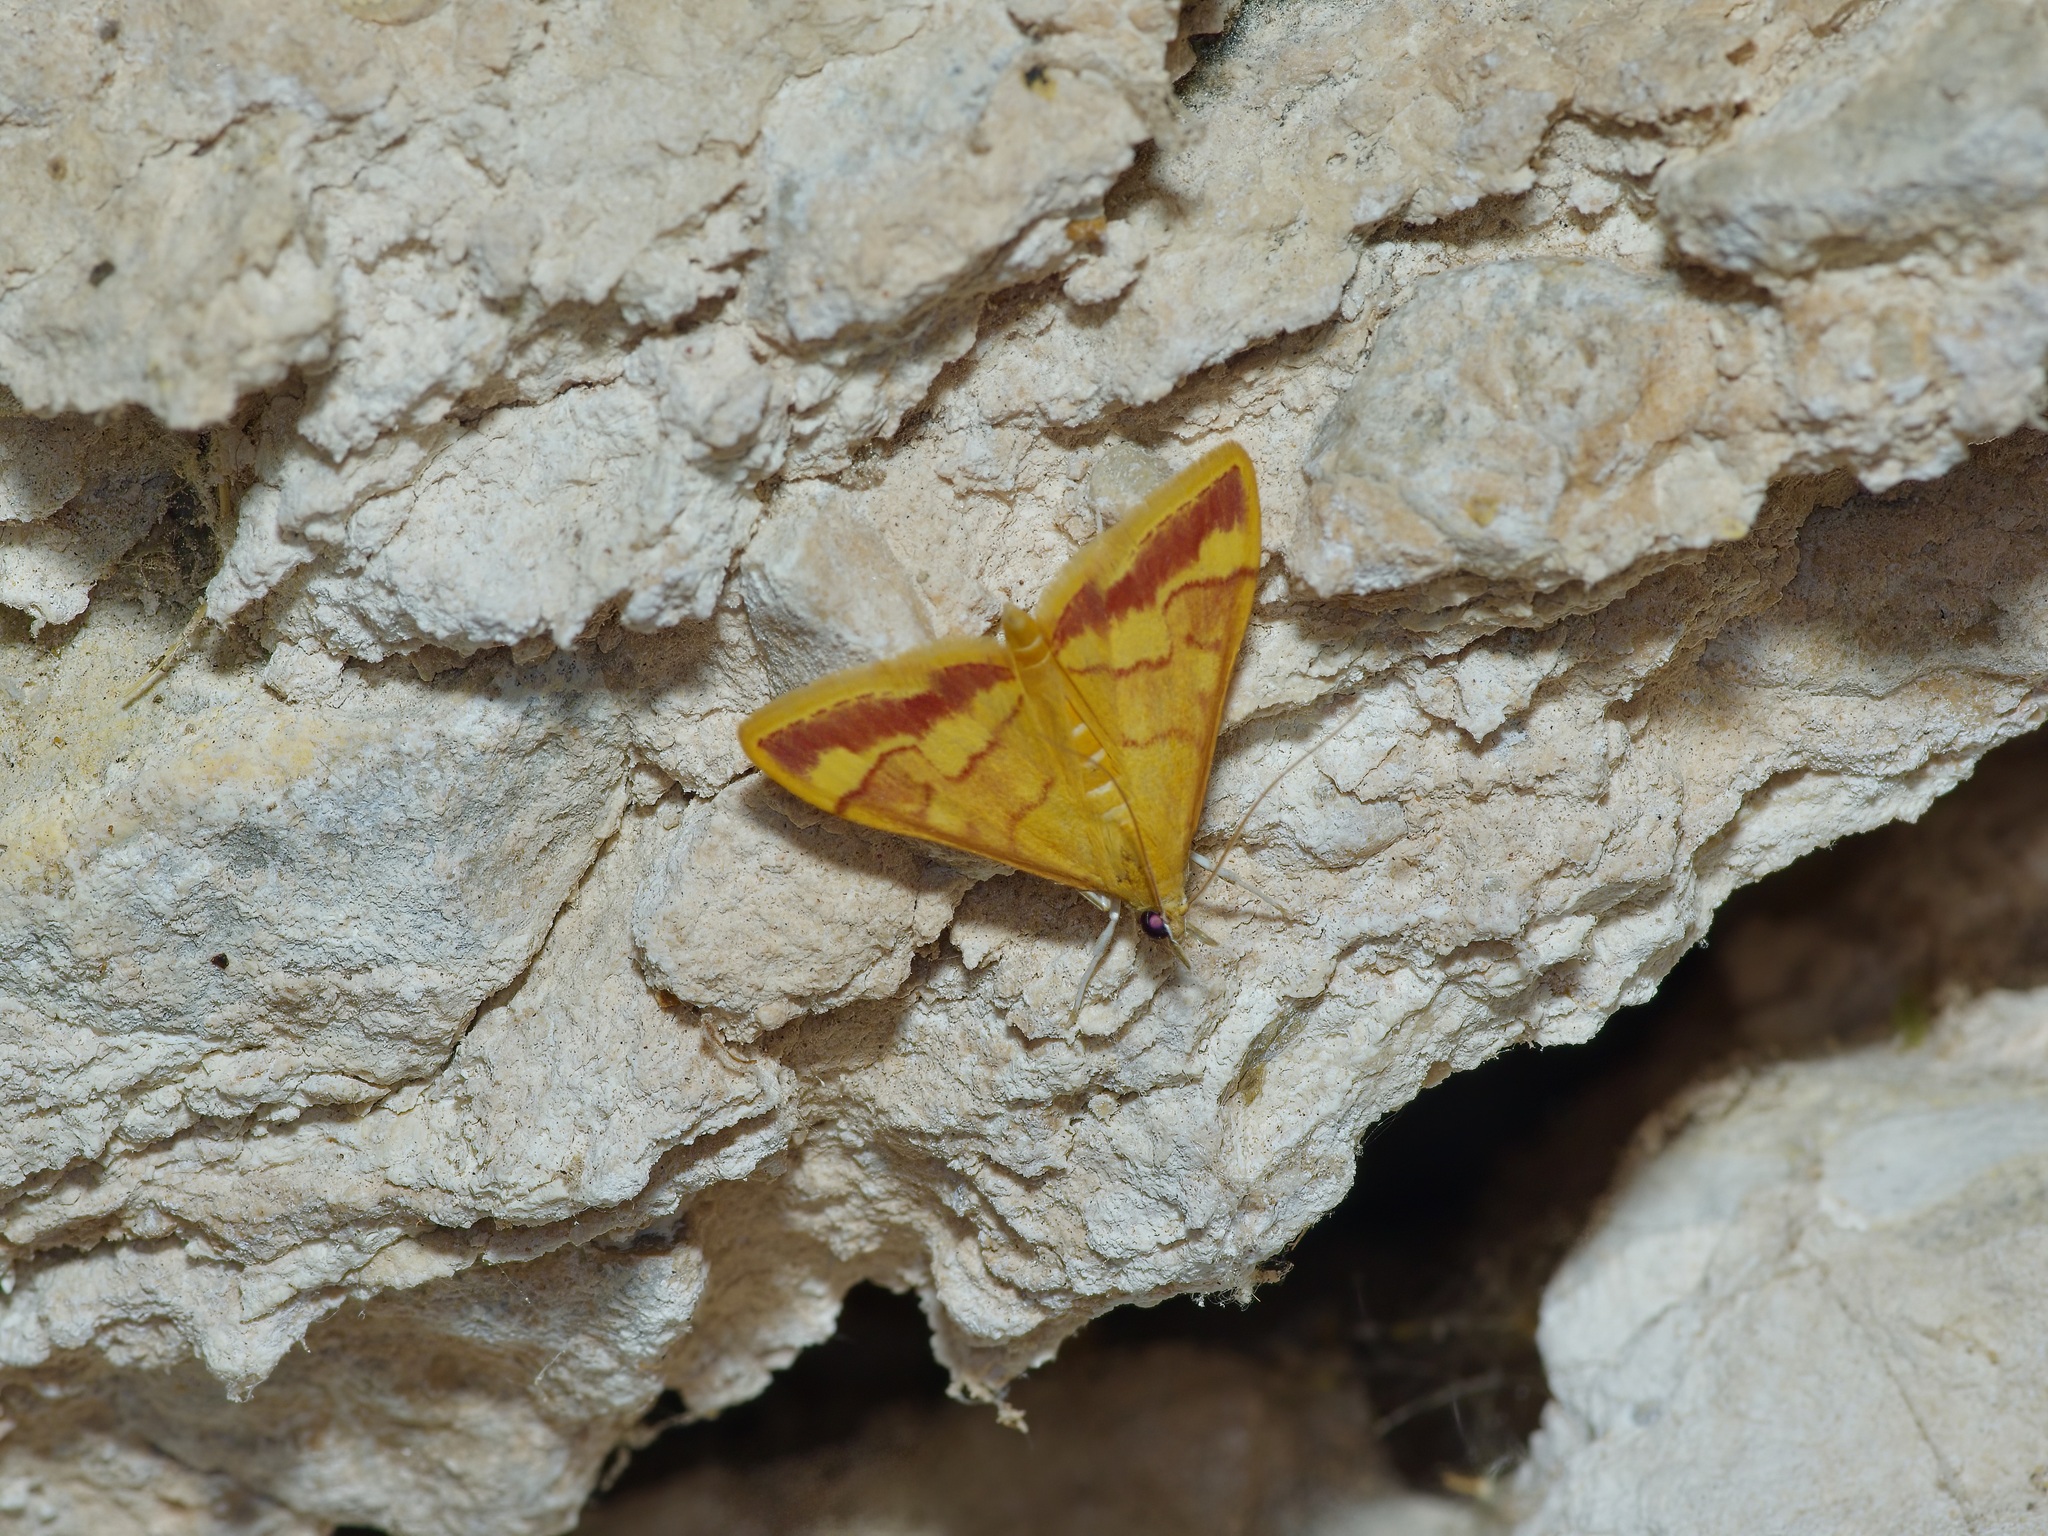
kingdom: Animalia
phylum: Arthropoda
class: Insecta
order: Lepidoptera
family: Crambidae
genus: Pyrausta
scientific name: Pyrausta pseudonythesalis
